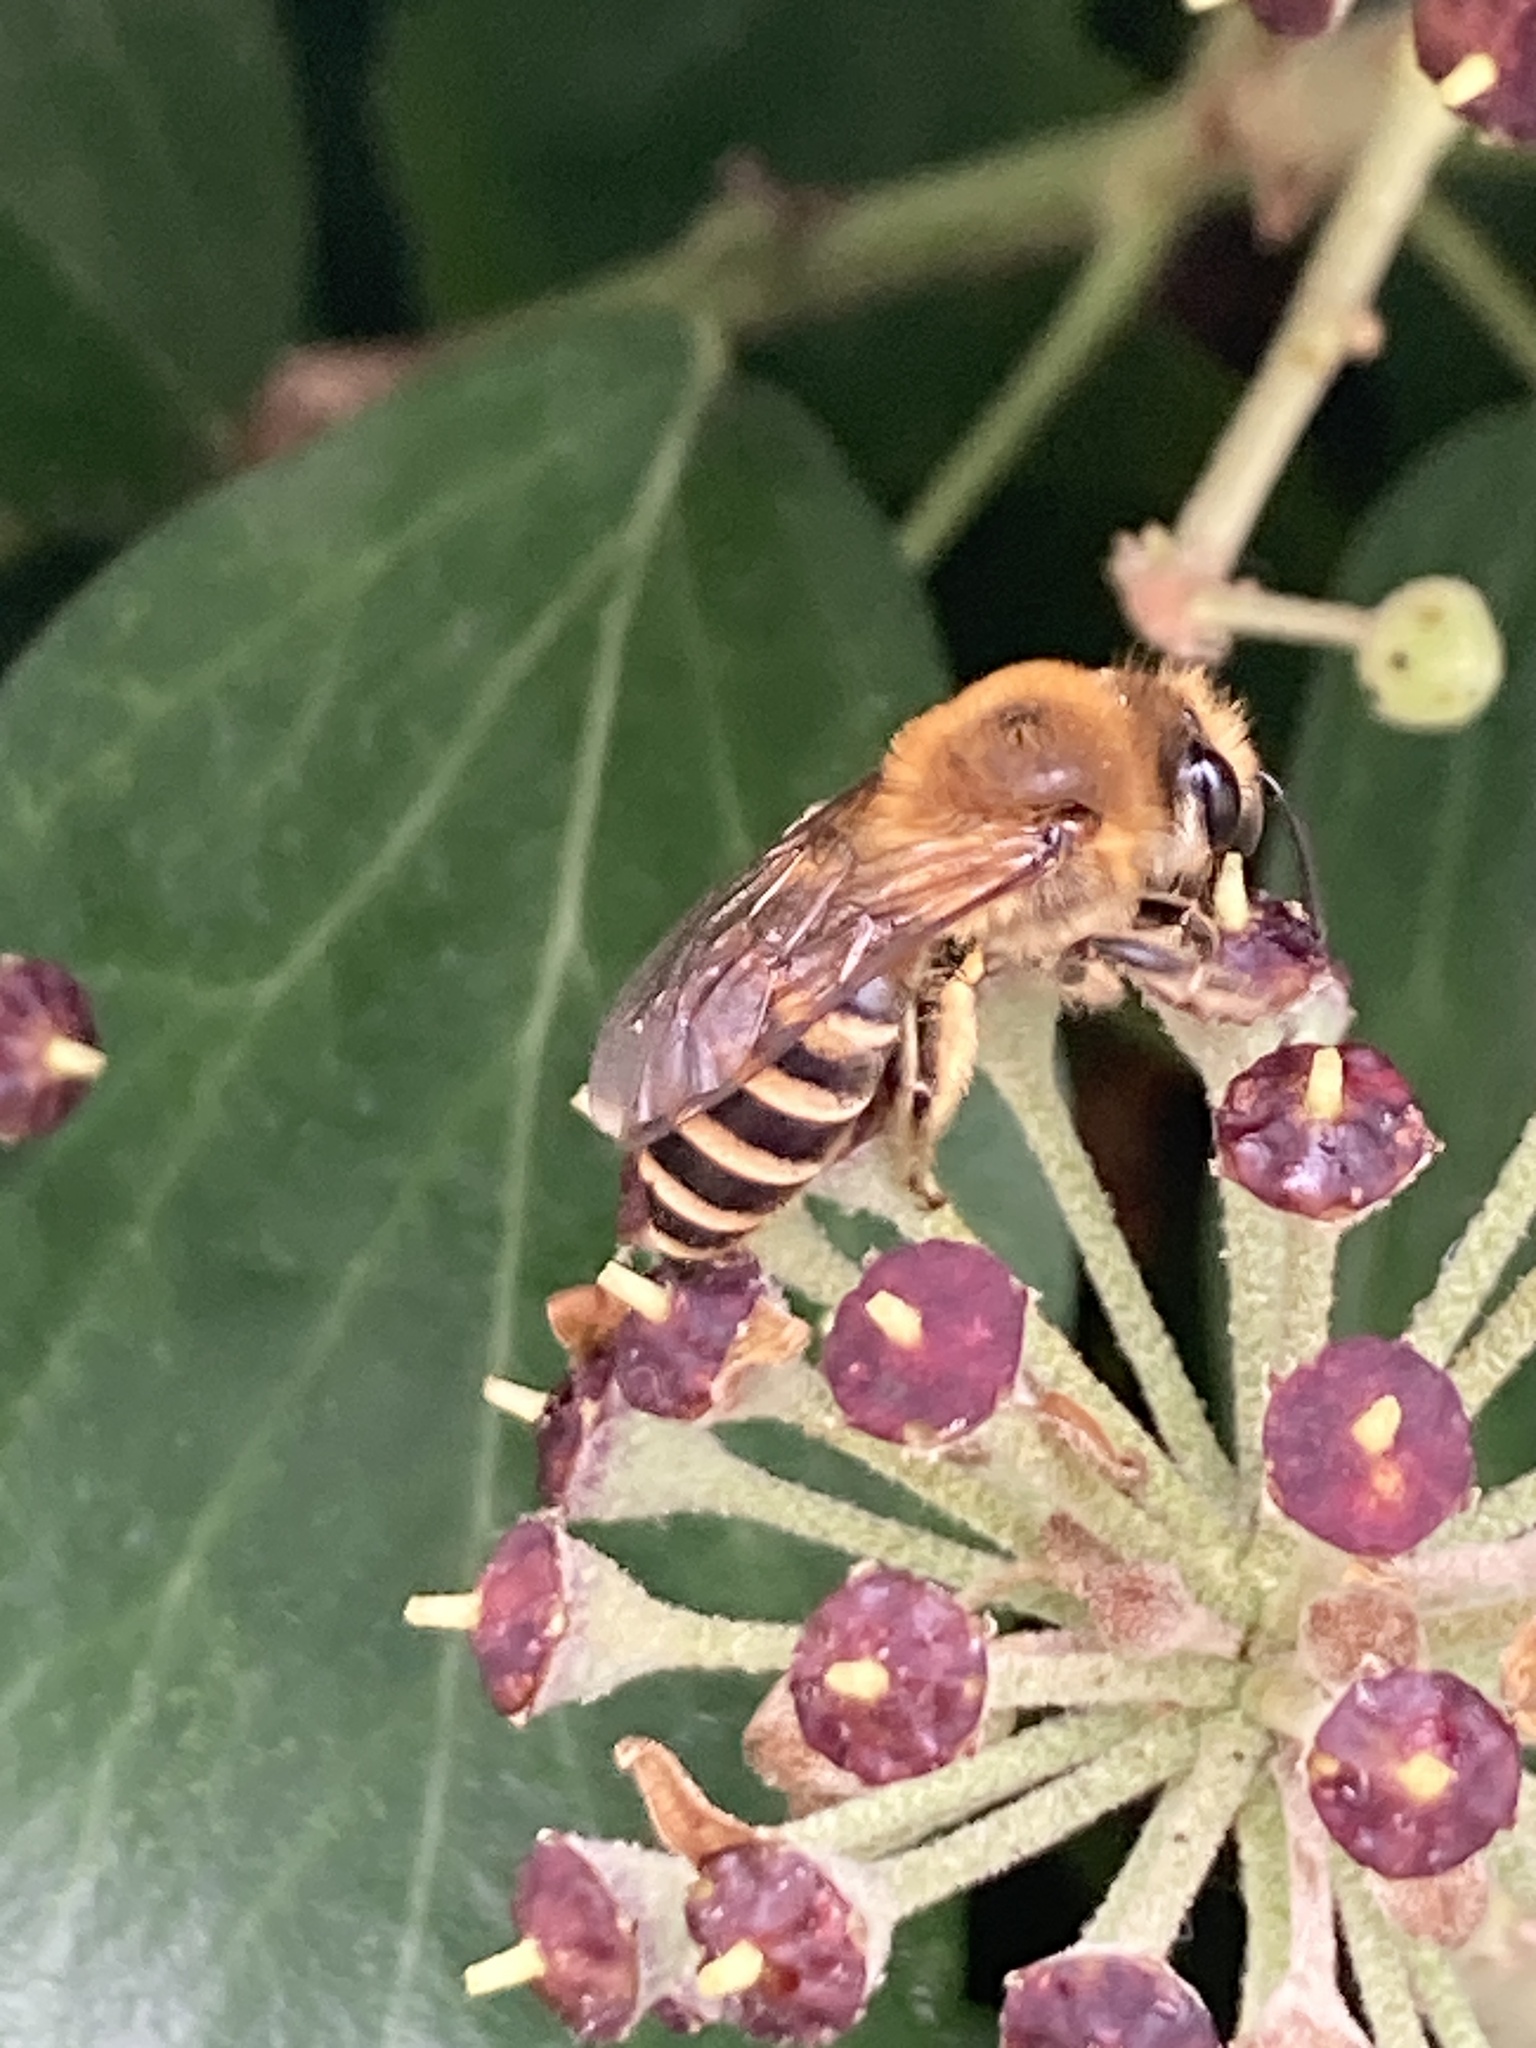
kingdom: Animalia
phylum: Arthropoda
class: Insecta
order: Hymenoptera
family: Colletidae
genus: Colletes
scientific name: Colletes hederae
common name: Ivy bee
